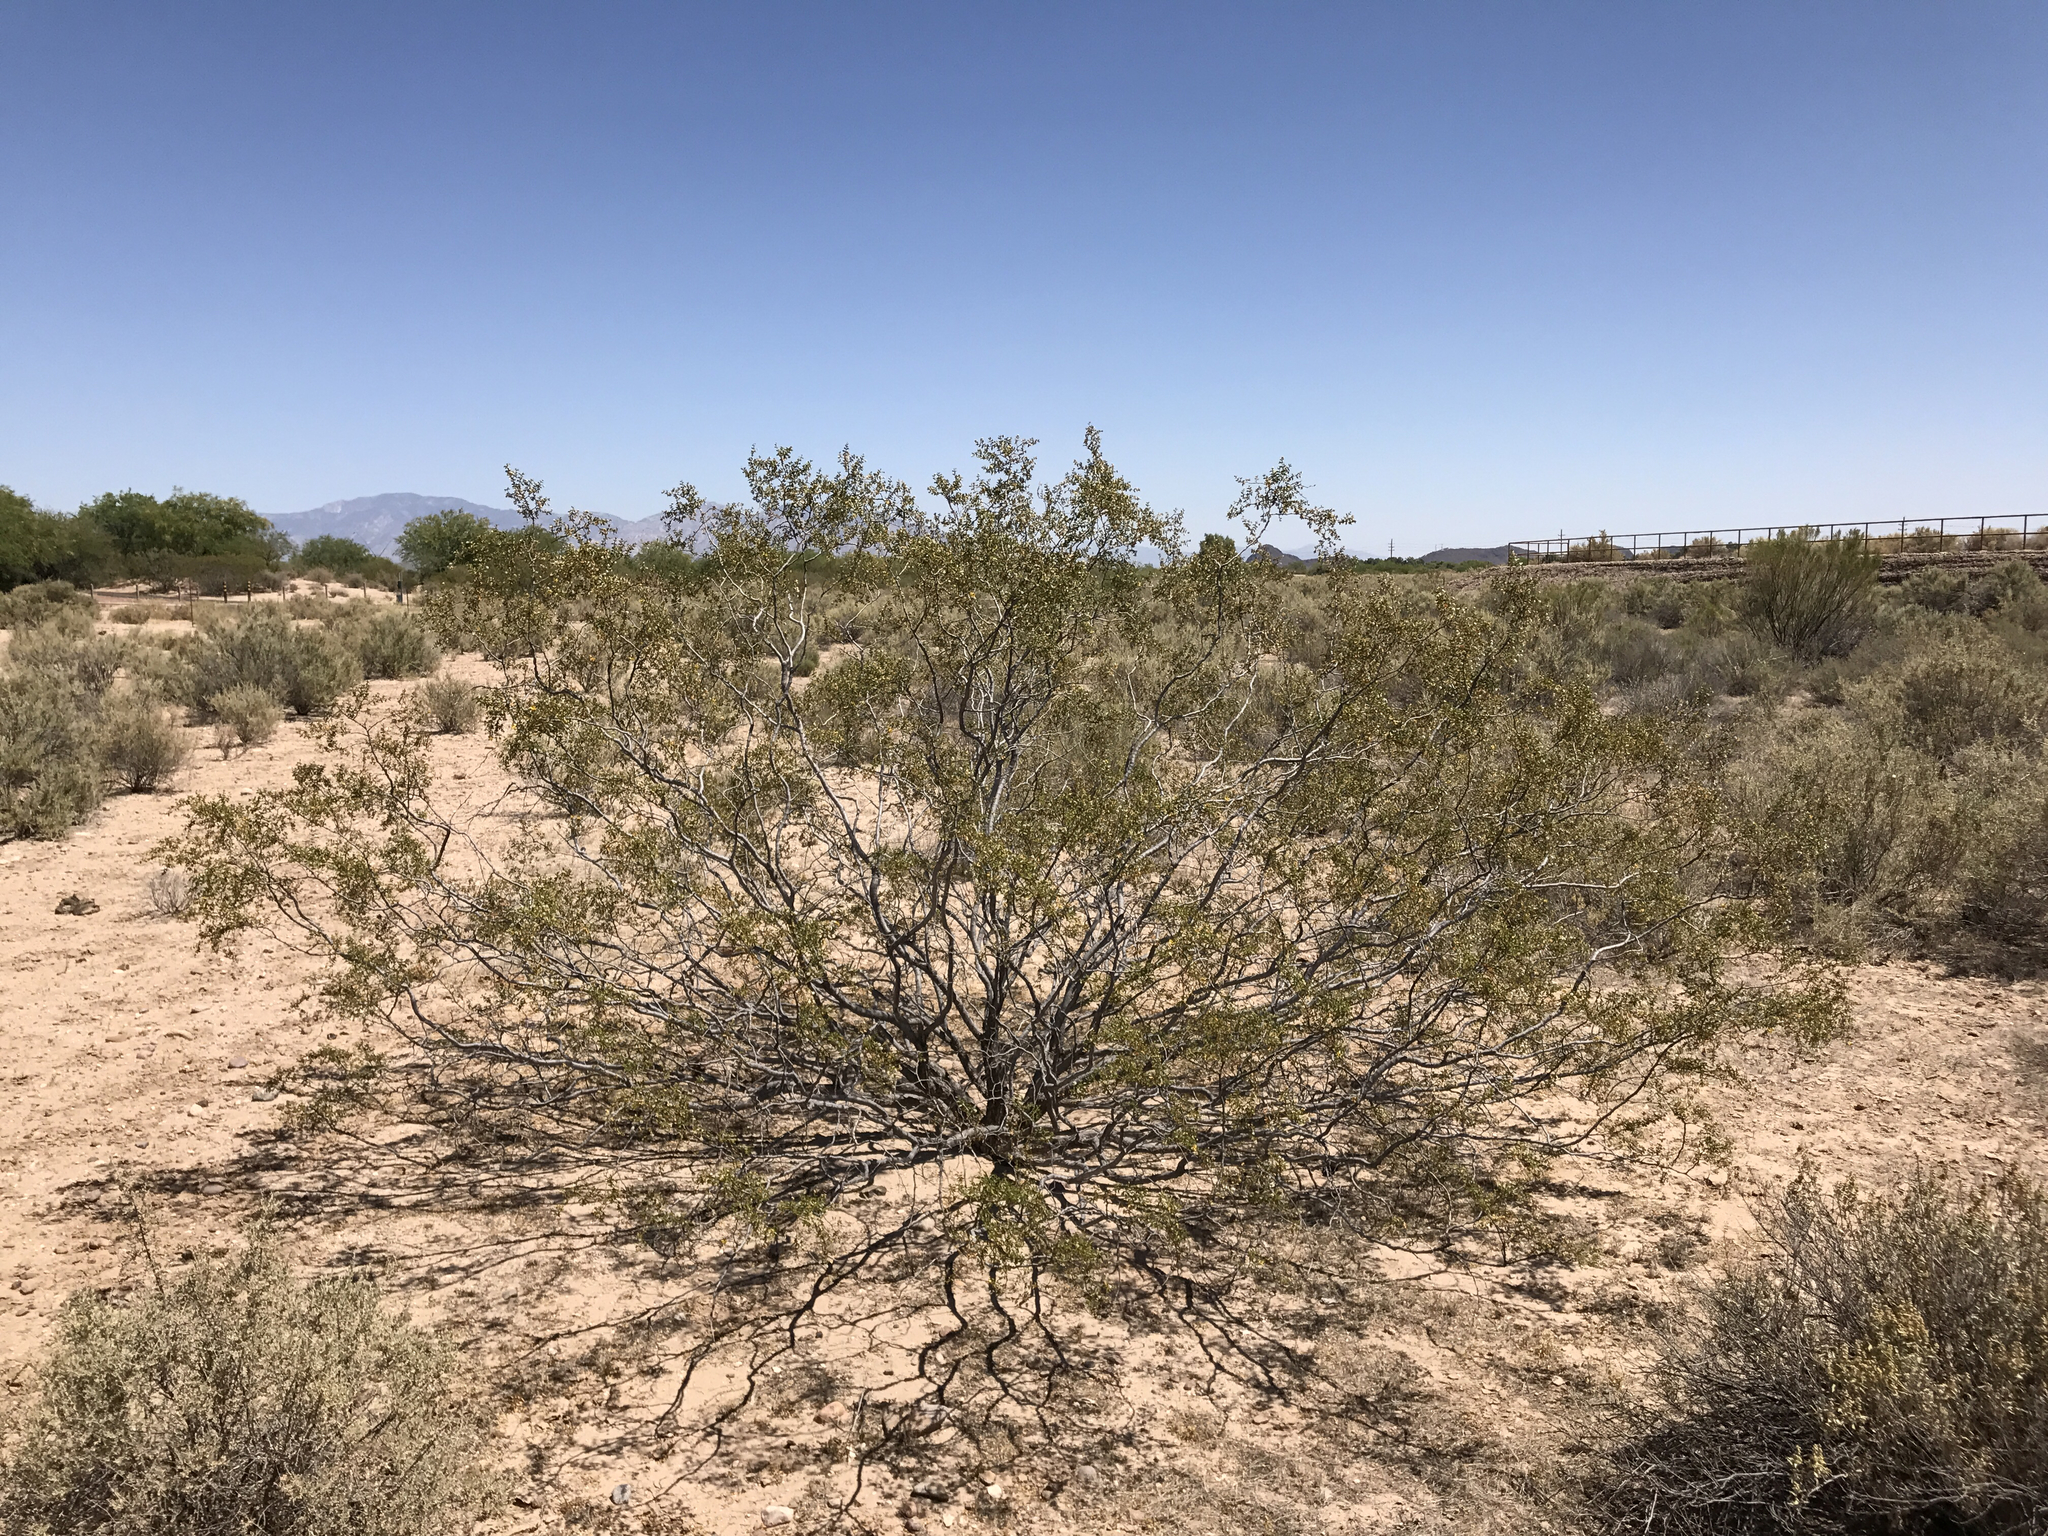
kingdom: Plantae
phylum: Tracheophyta
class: Magnoliopsida
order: Zygophyllales
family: Zygophyllaceae
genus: Larrea
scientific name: Larrea tridentata
